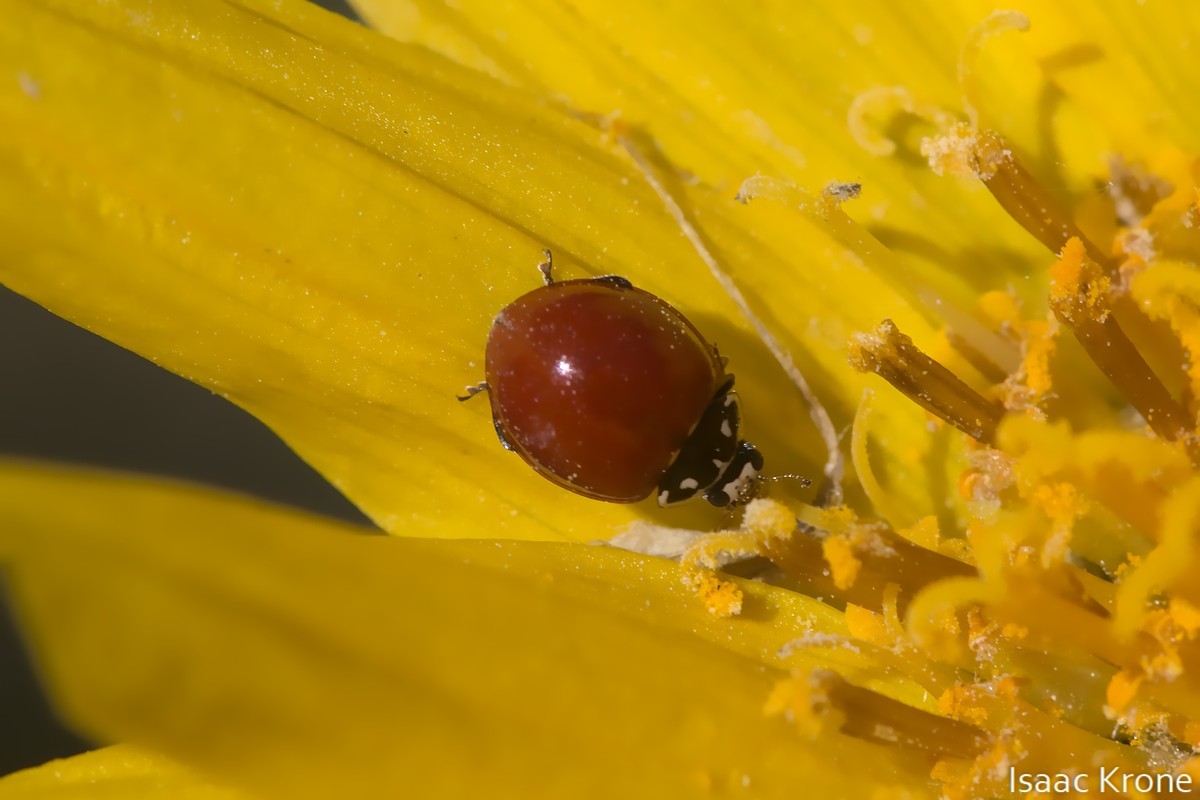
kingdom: Animalia
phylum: Arthropoda
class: Insecta
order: Coleoptera
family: Coccinellidae
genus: Cycloneda
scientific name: Cycloneda sanguinea
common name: Ladybird beetle
